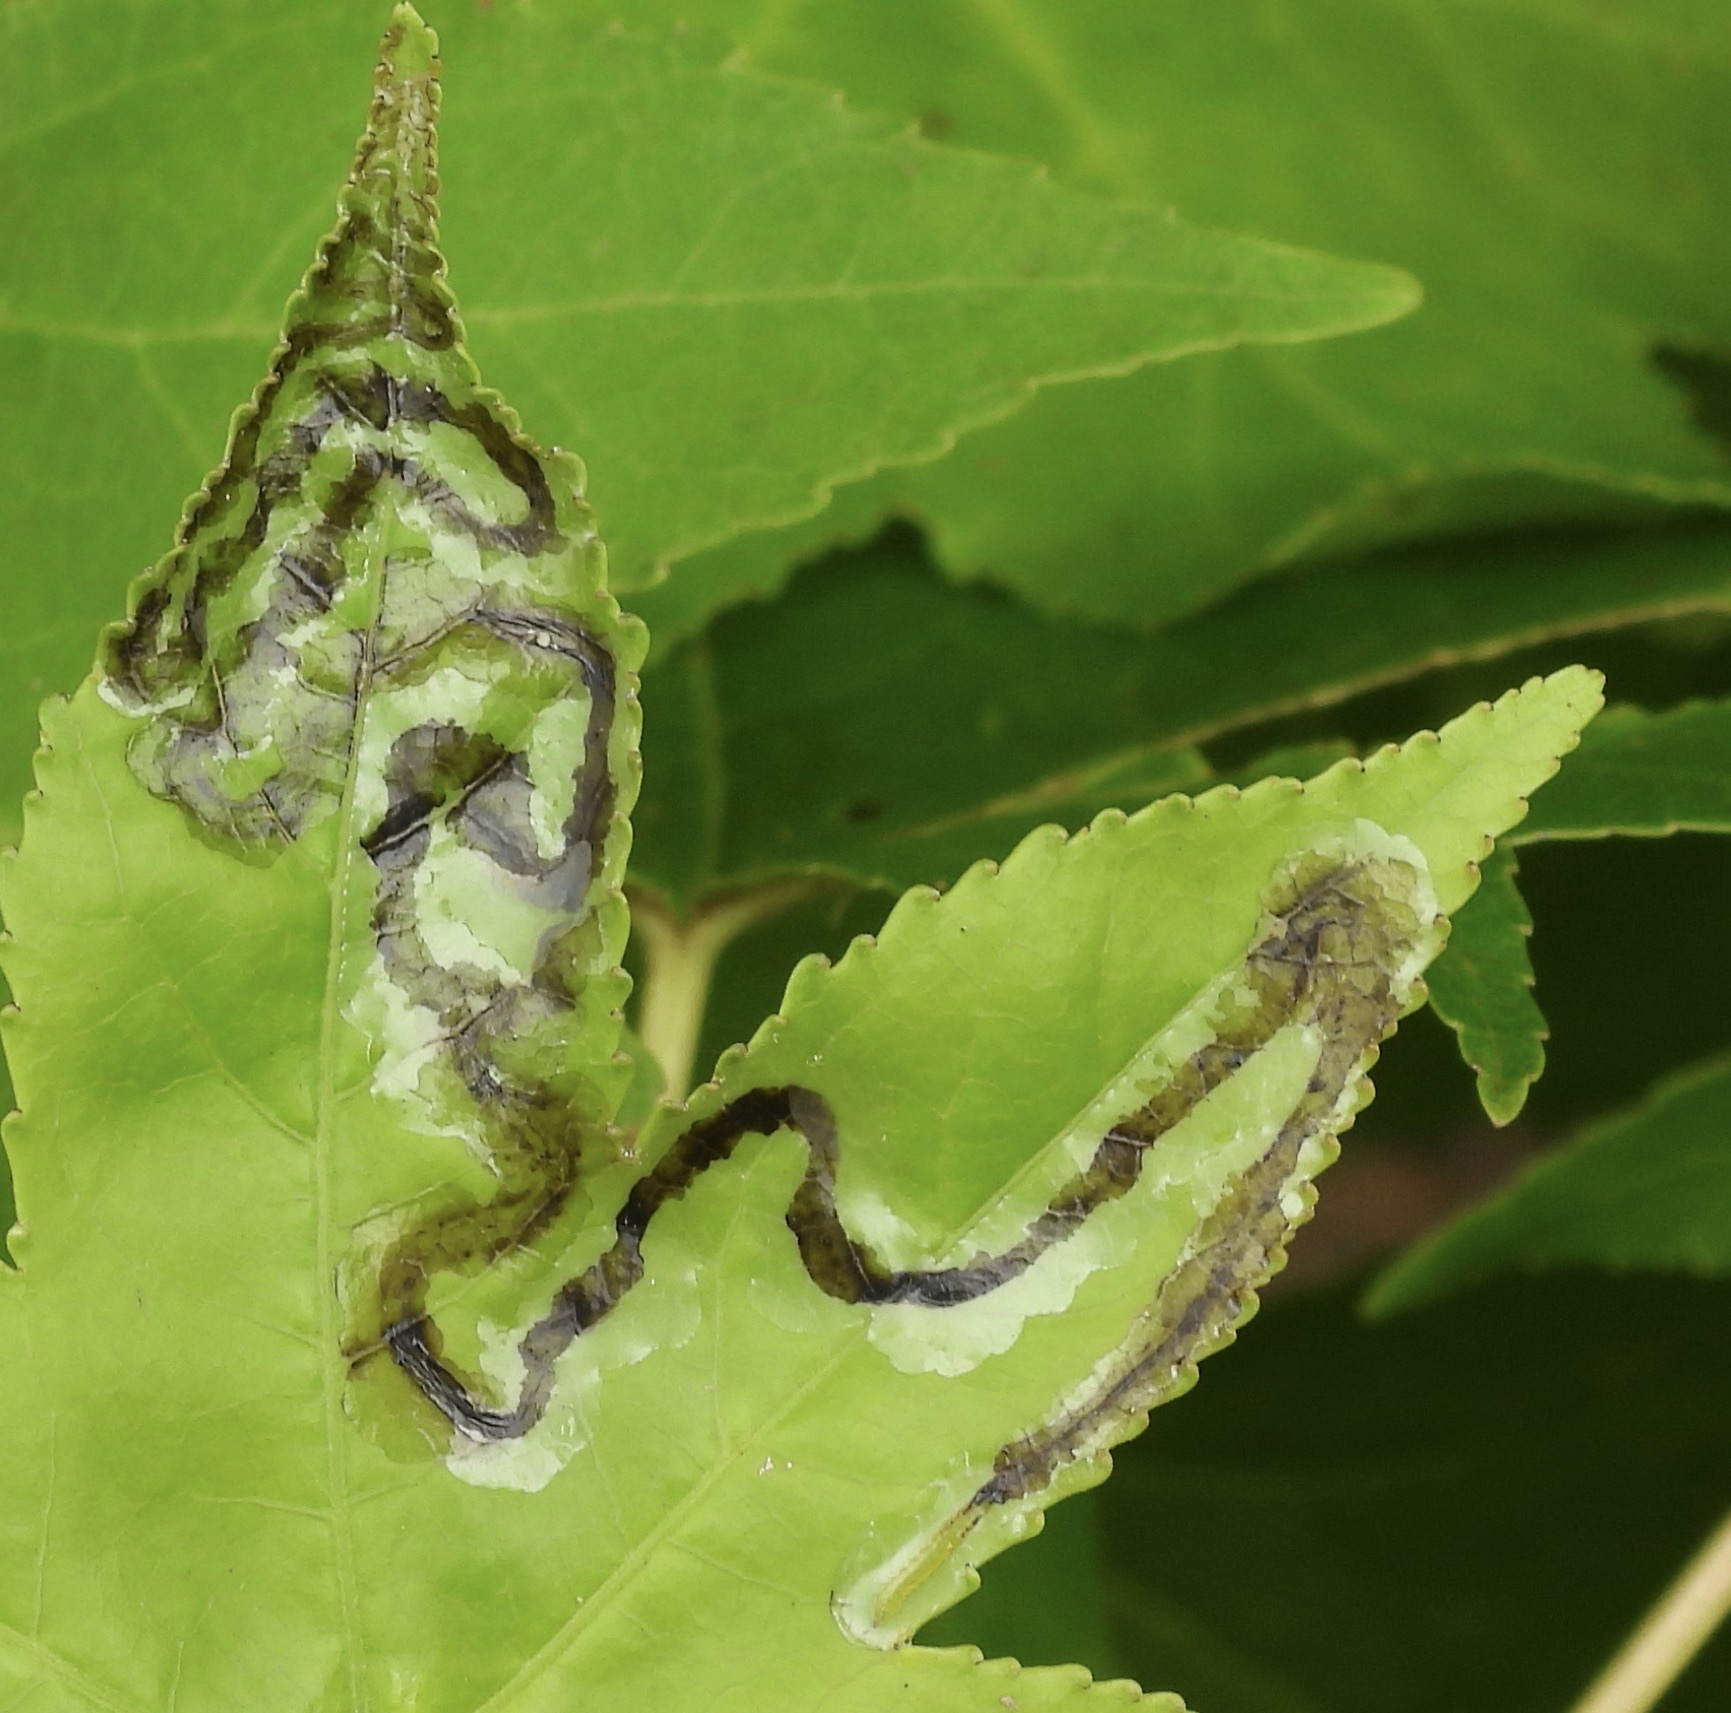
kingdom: Animalia
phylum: Arthropoda
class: Insecta
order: Lepidoptera
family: Gracillariidae
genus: Phyllocnistis
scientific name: Phyllocnistis liquidambarisella
